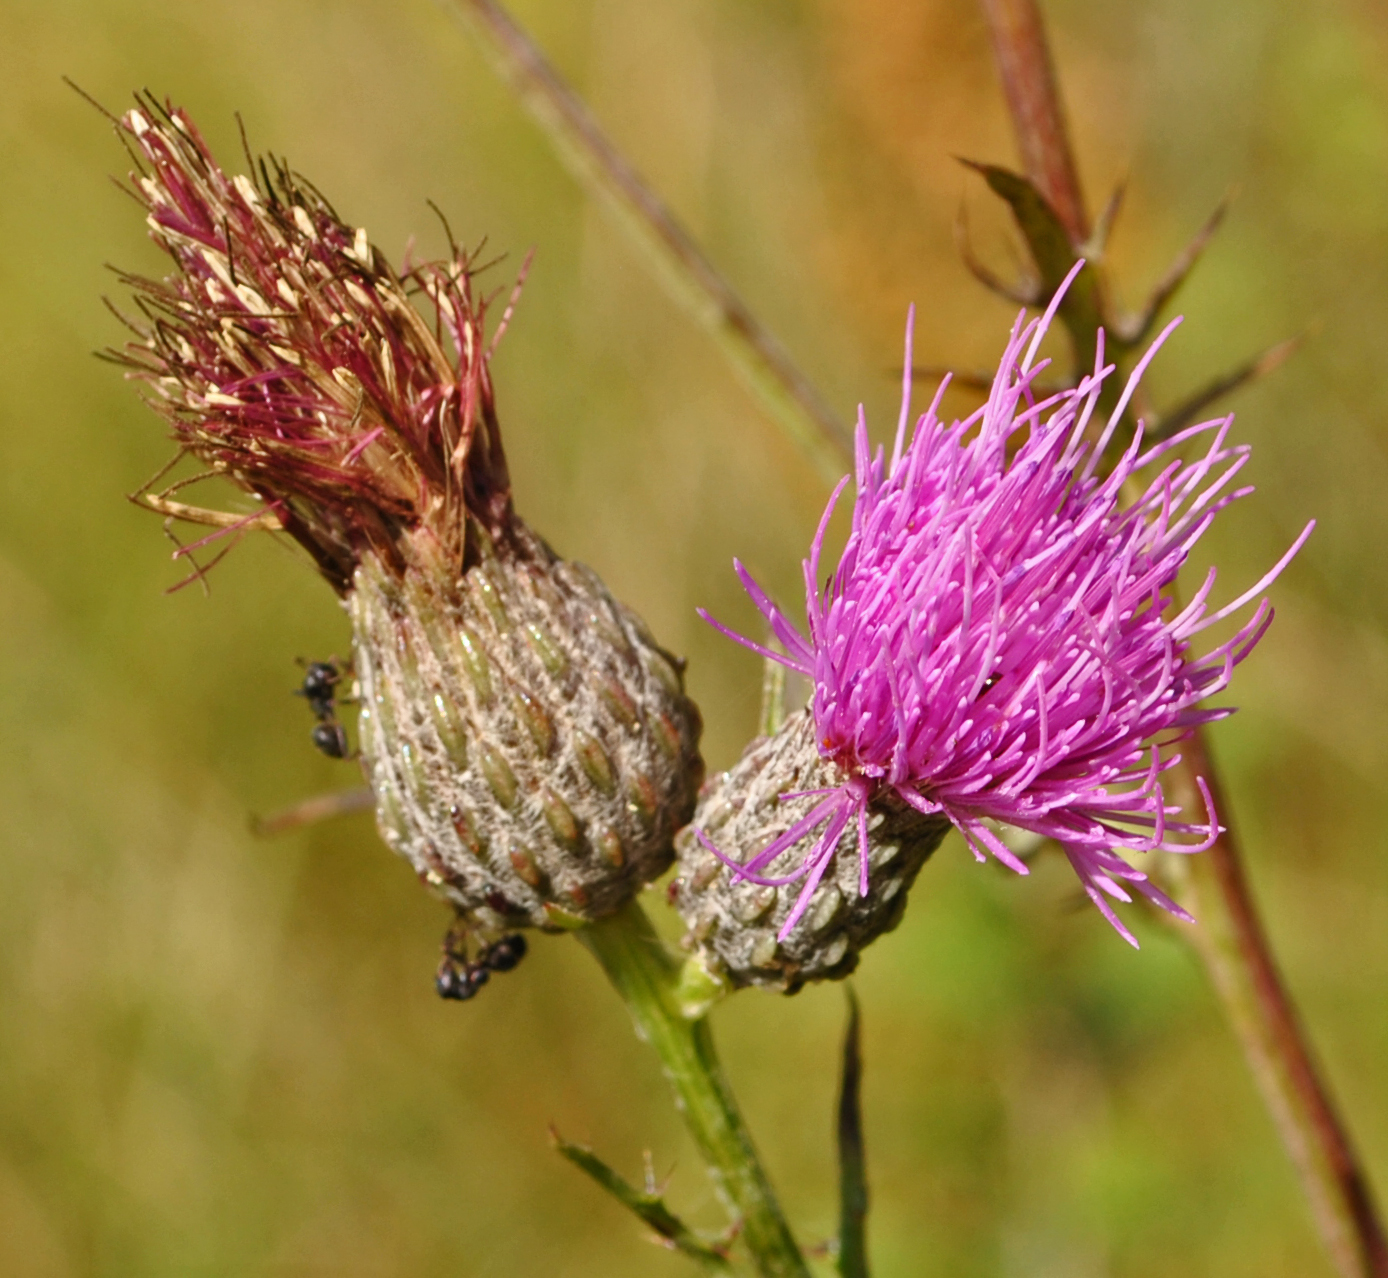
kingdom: Plantae
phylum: Tracheophyta
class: Magnoliopsida
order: Asterales
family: Asteraceae
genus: Cirsium
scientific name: Cirsium muticum
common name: Dunce-nettle
